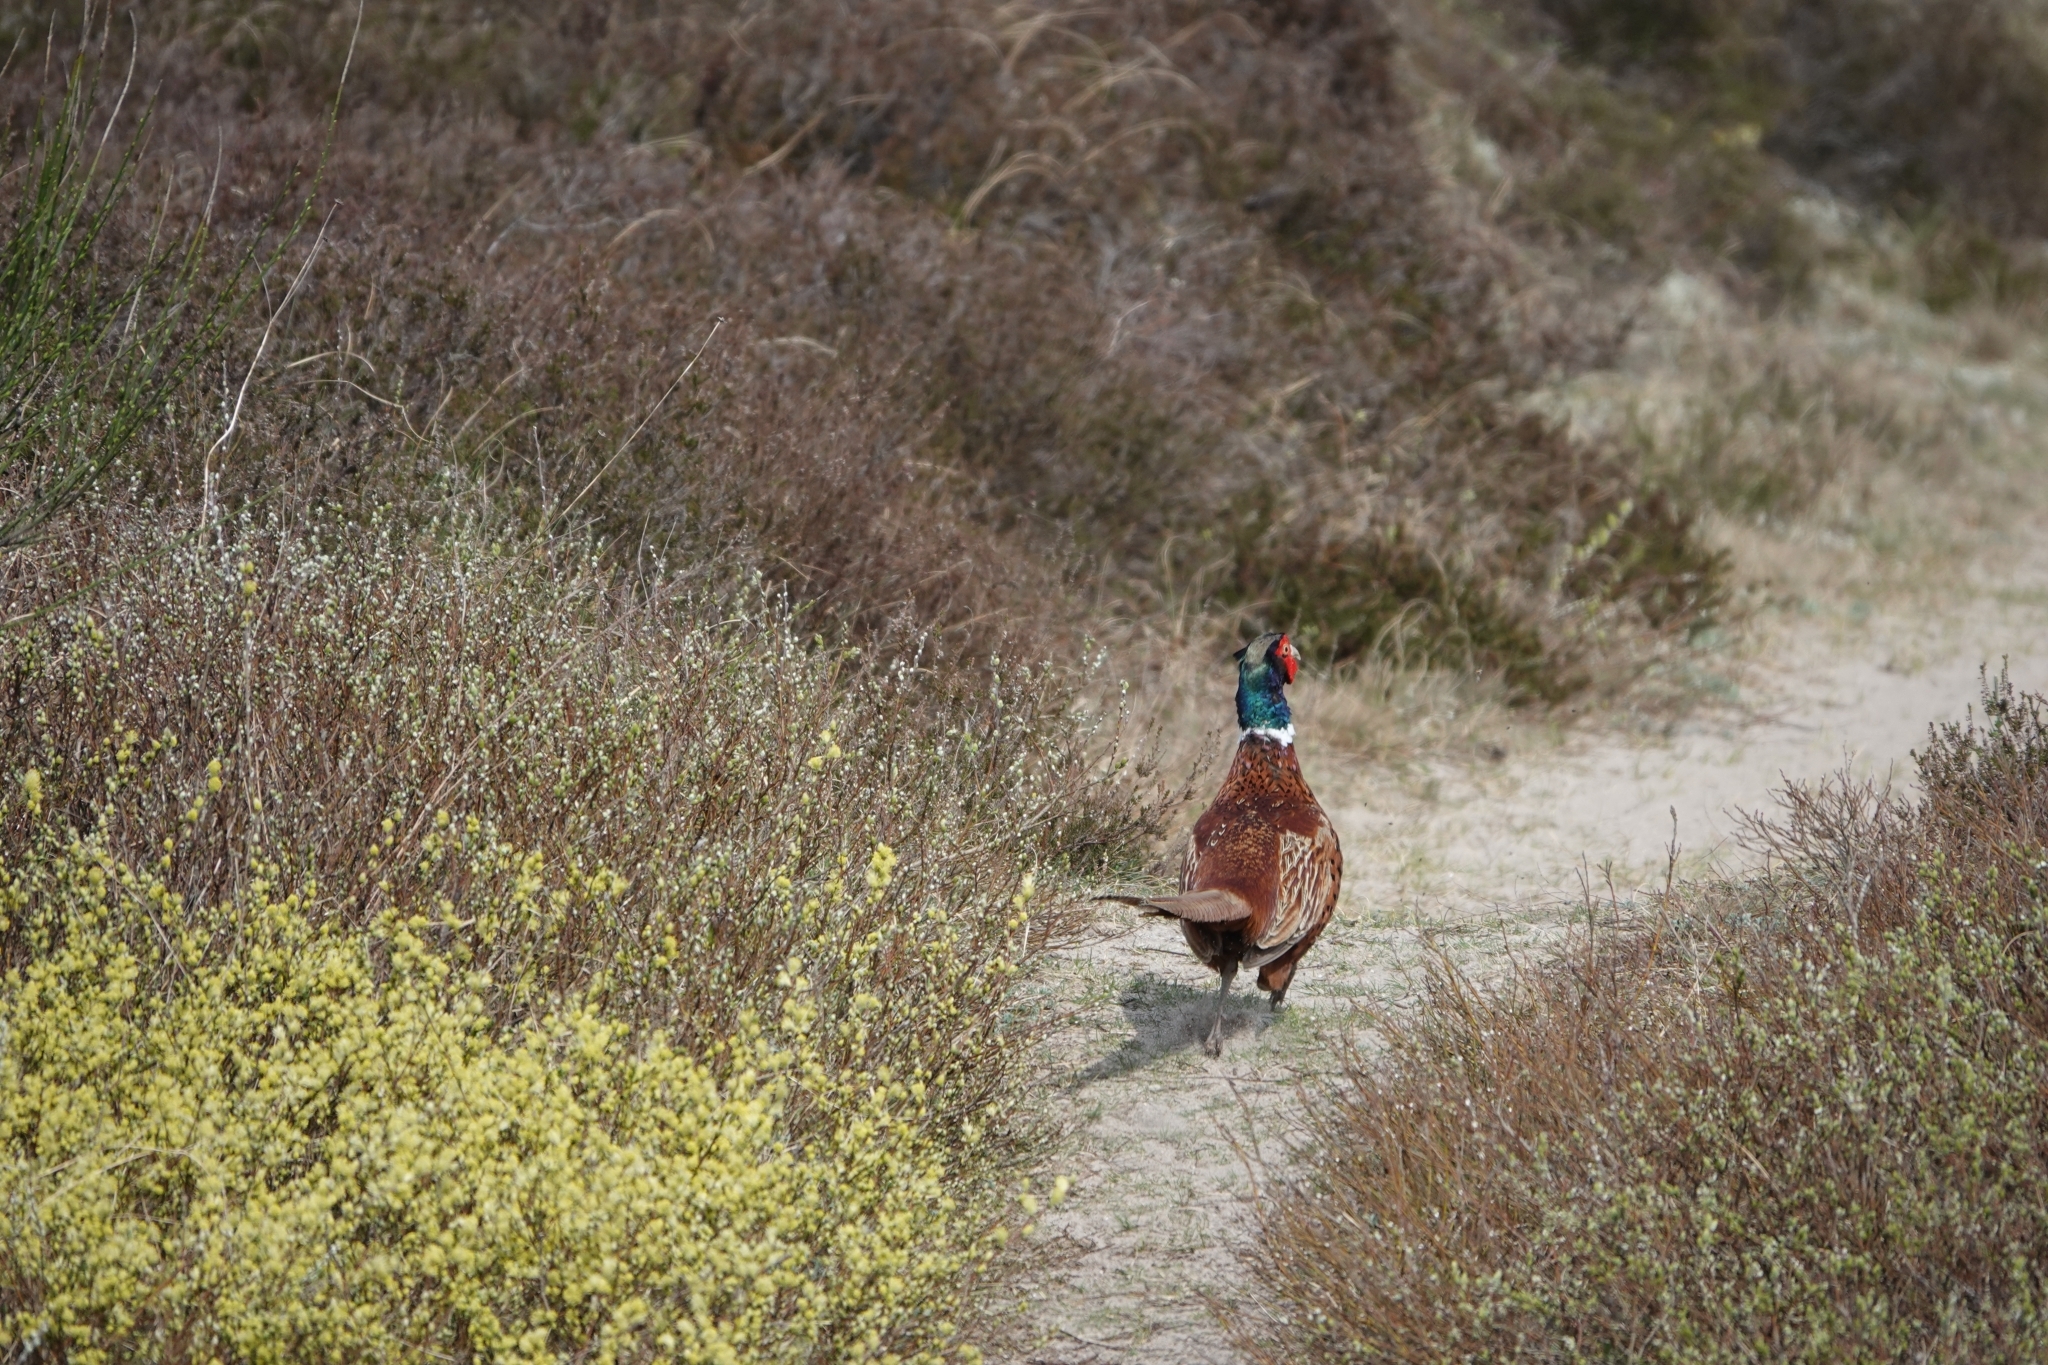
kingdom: Animalia
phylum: Chordata
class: Aves
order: Galliformes
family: Phasianidae
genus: Phasianus
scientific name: Phasianus colchicus
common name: Common pheasant
